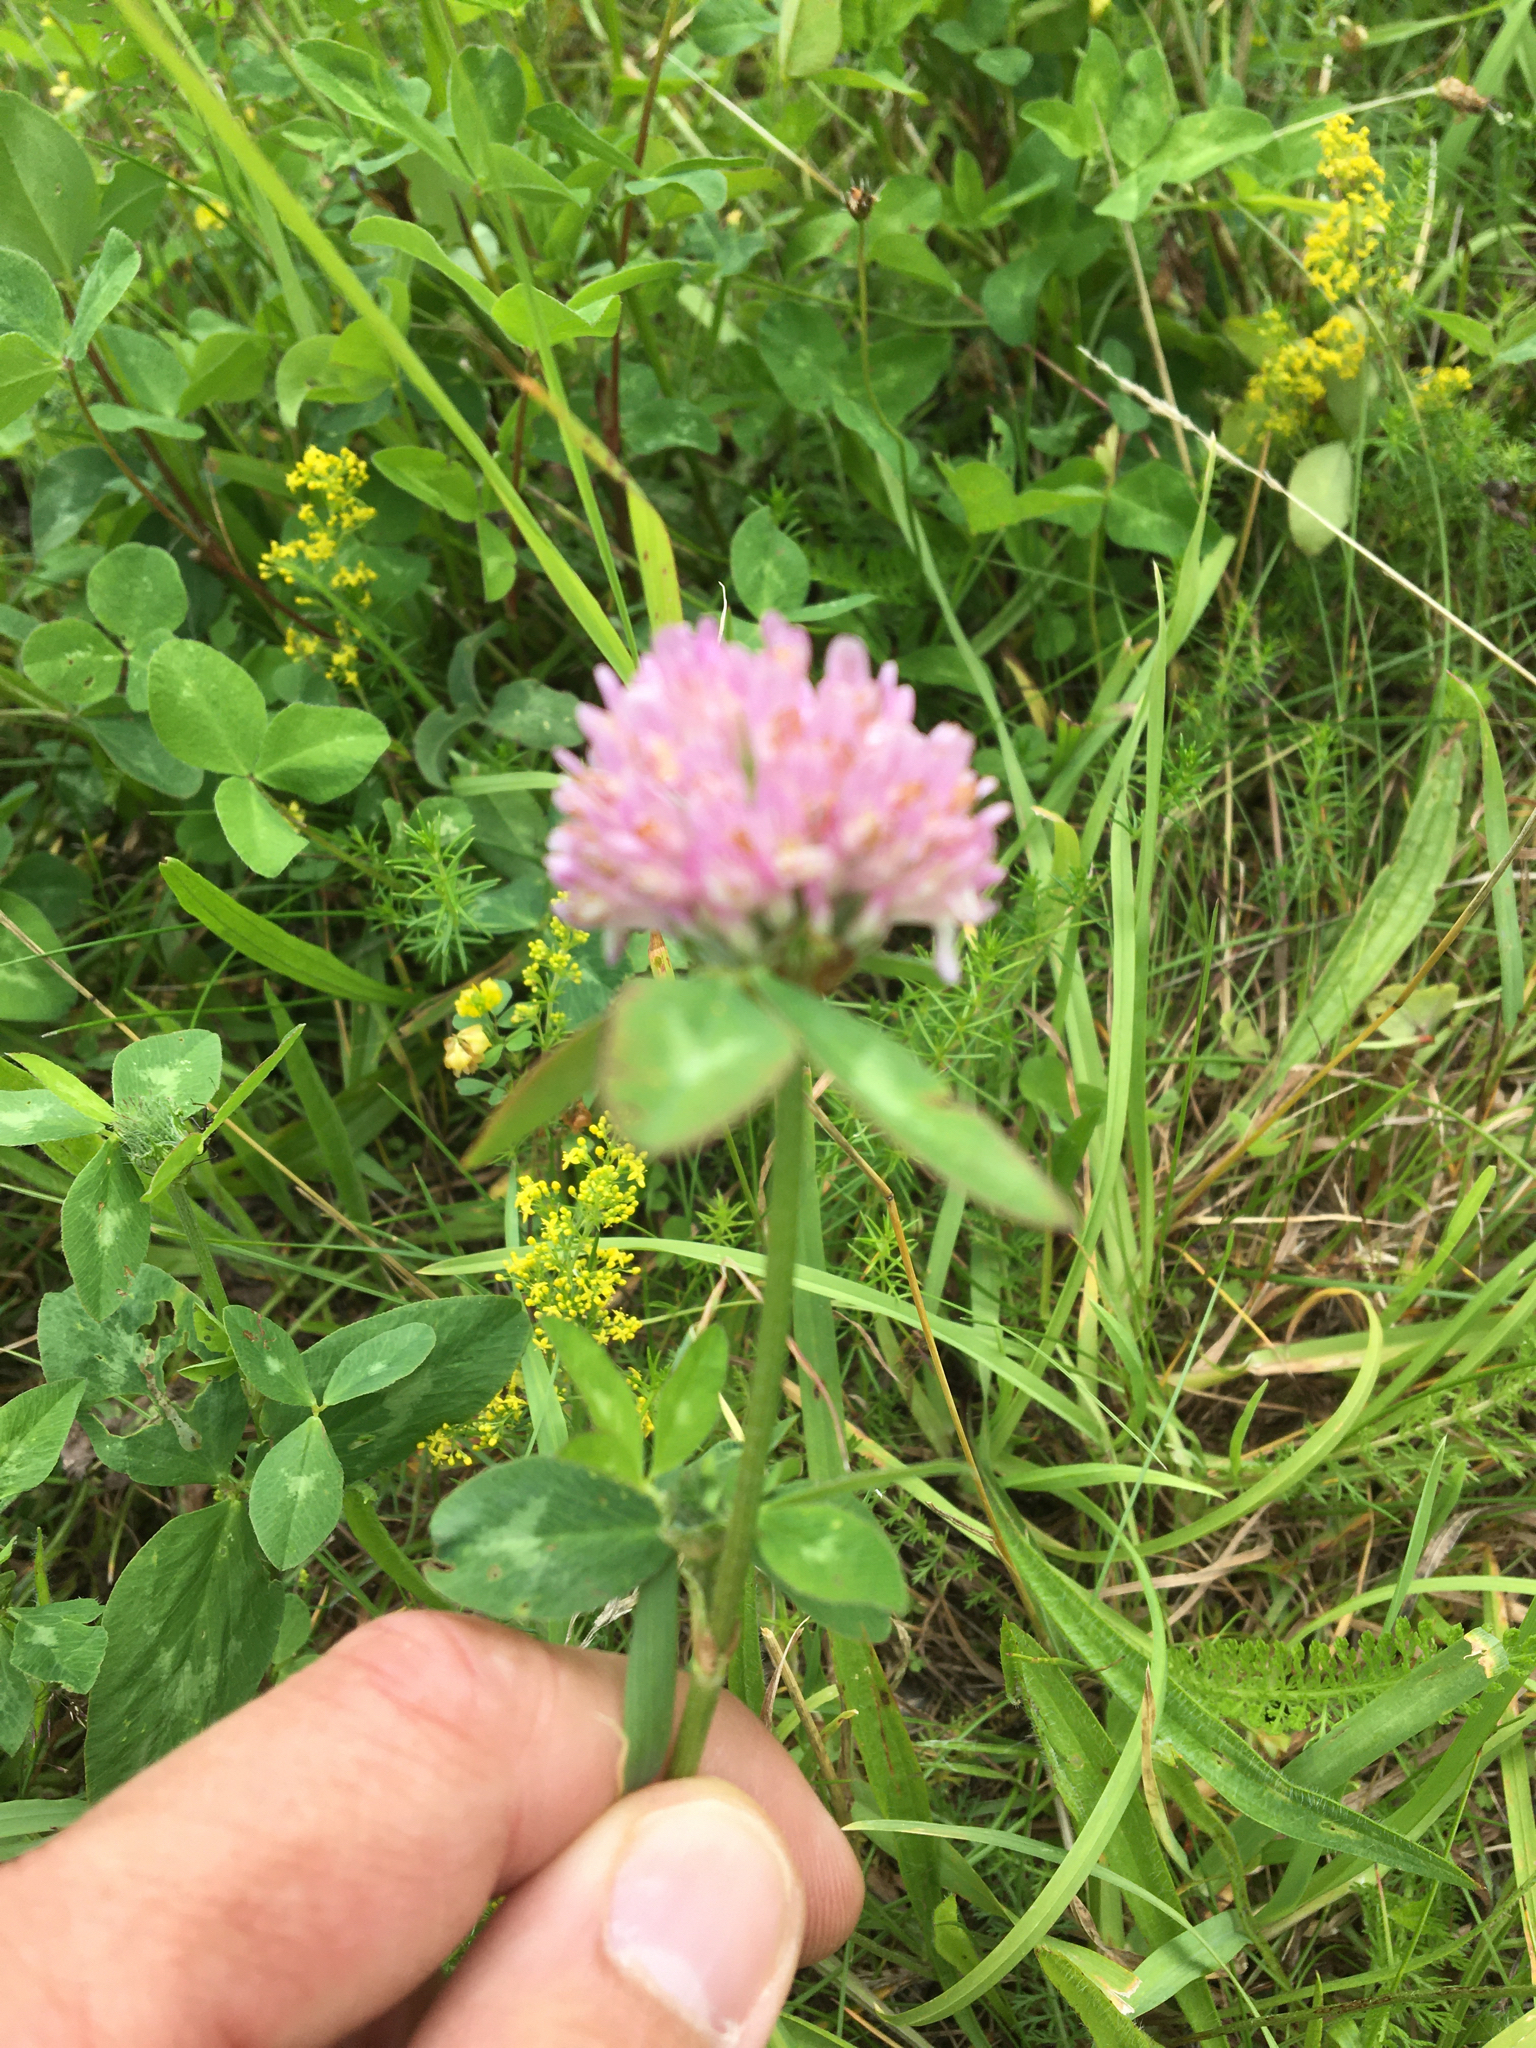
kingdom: Plantae
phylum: Tracheophyta
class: Magnoliopsida
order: Fabales
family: Fabaceae
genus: Trifolium
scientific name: Trifolium pratense
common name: Red clover
